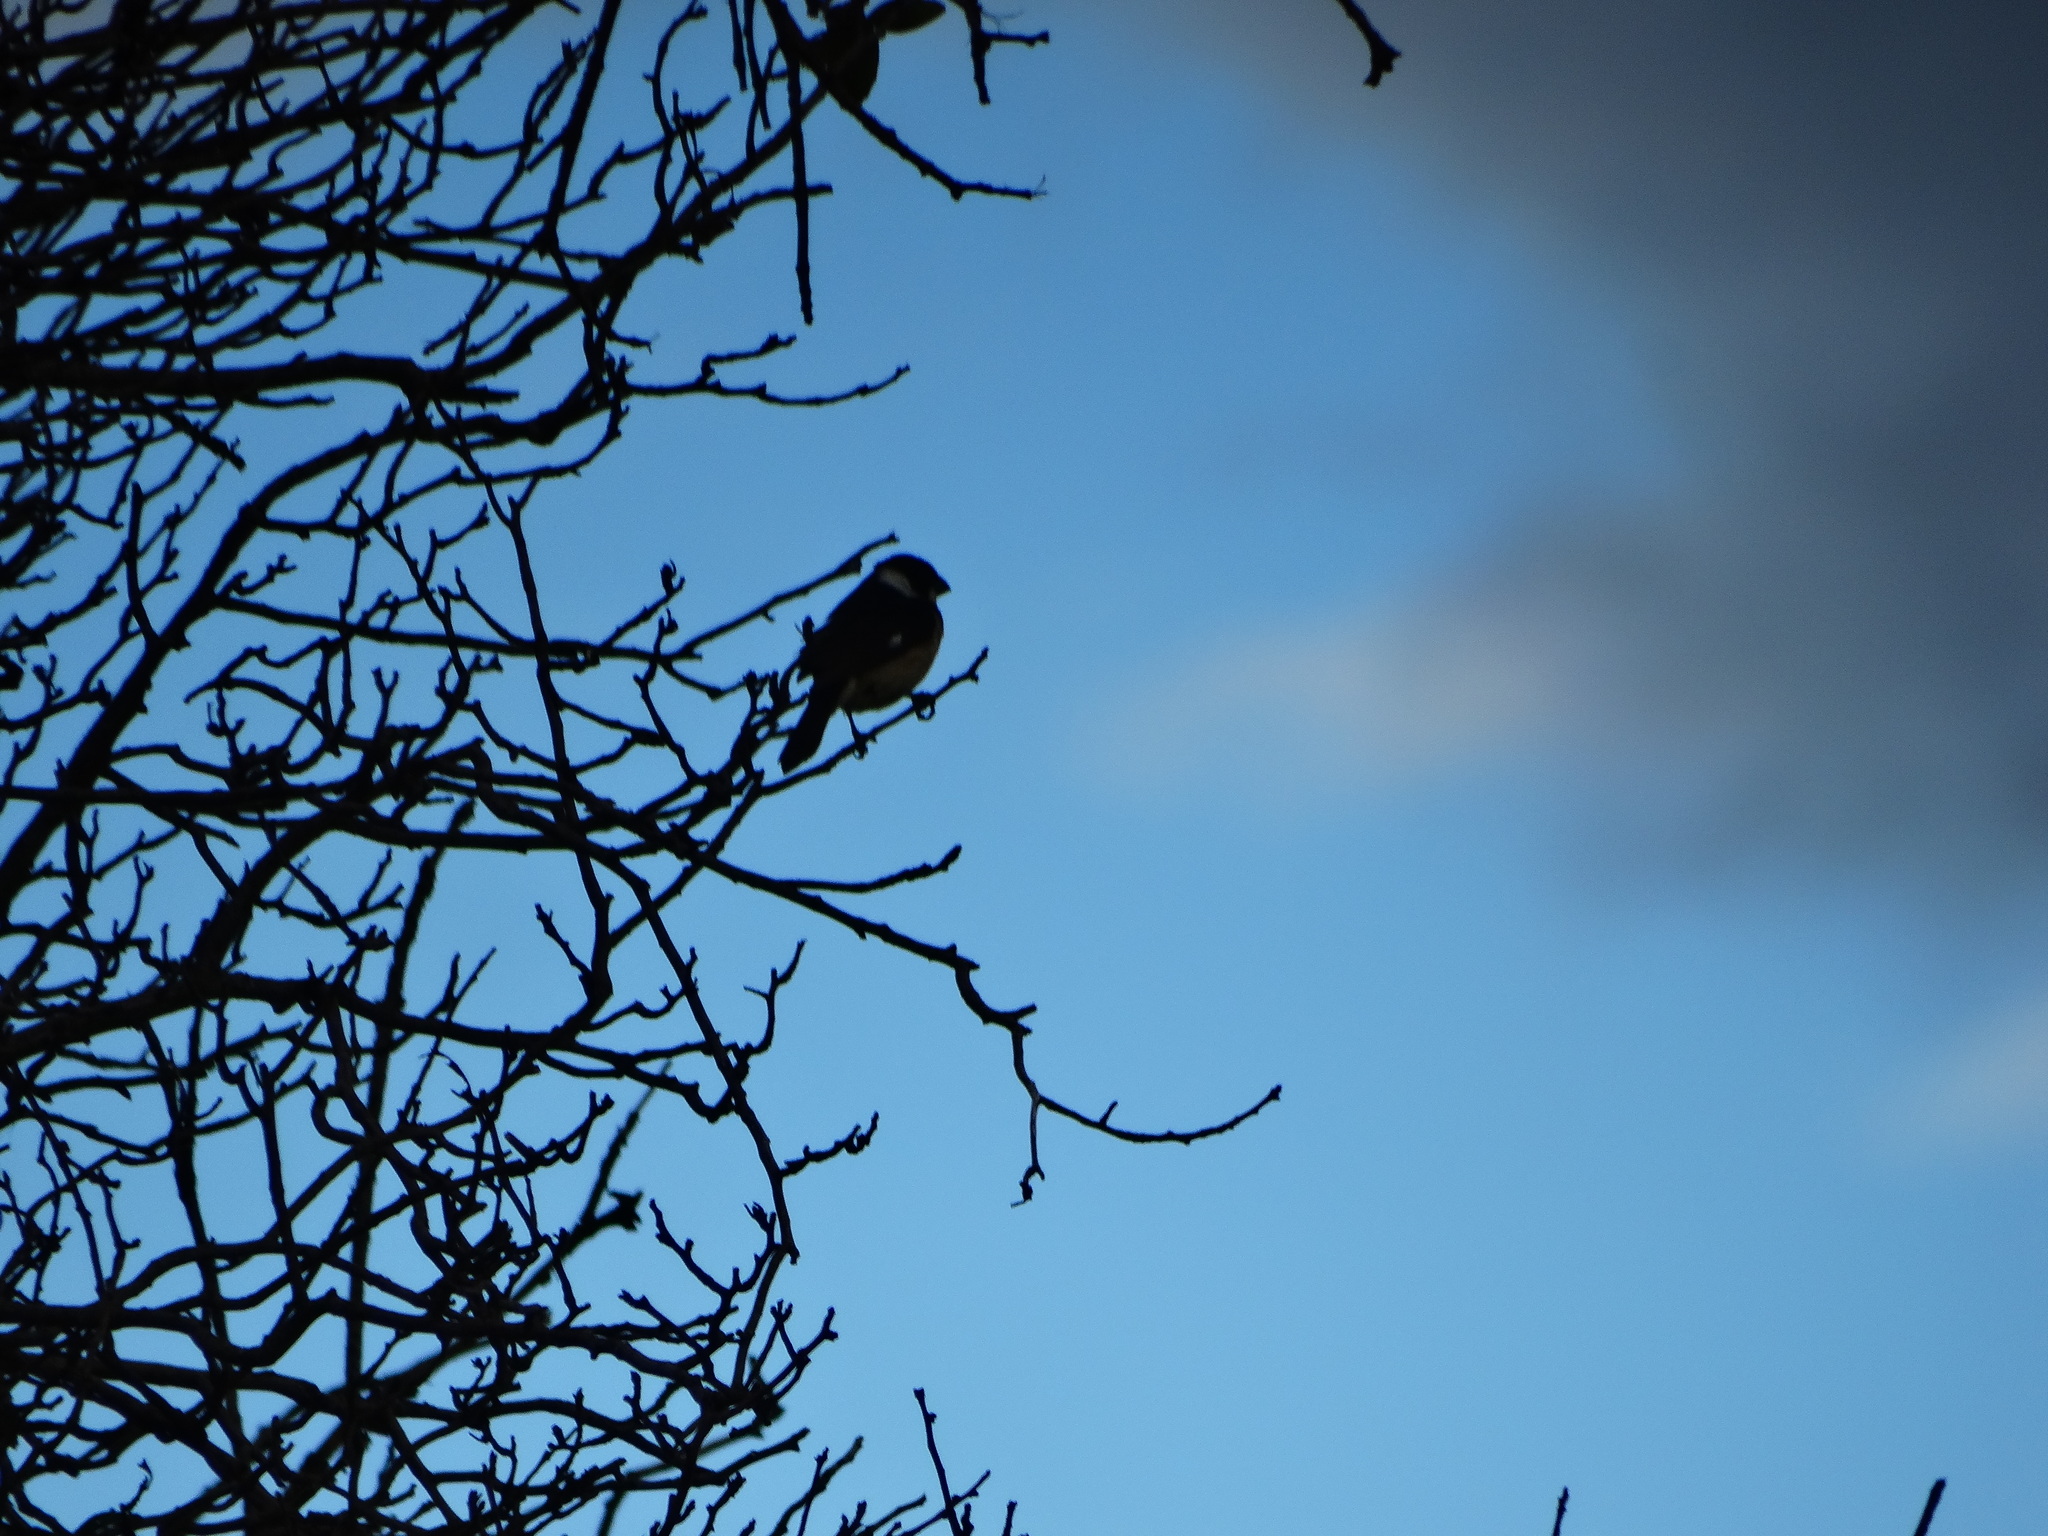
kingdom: Animalia
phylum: Chordata
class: Aves
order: Passeriformes
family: Thraupidae
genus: Sporophila
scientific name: Sporophila torqueola
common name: White-collared seedeater
